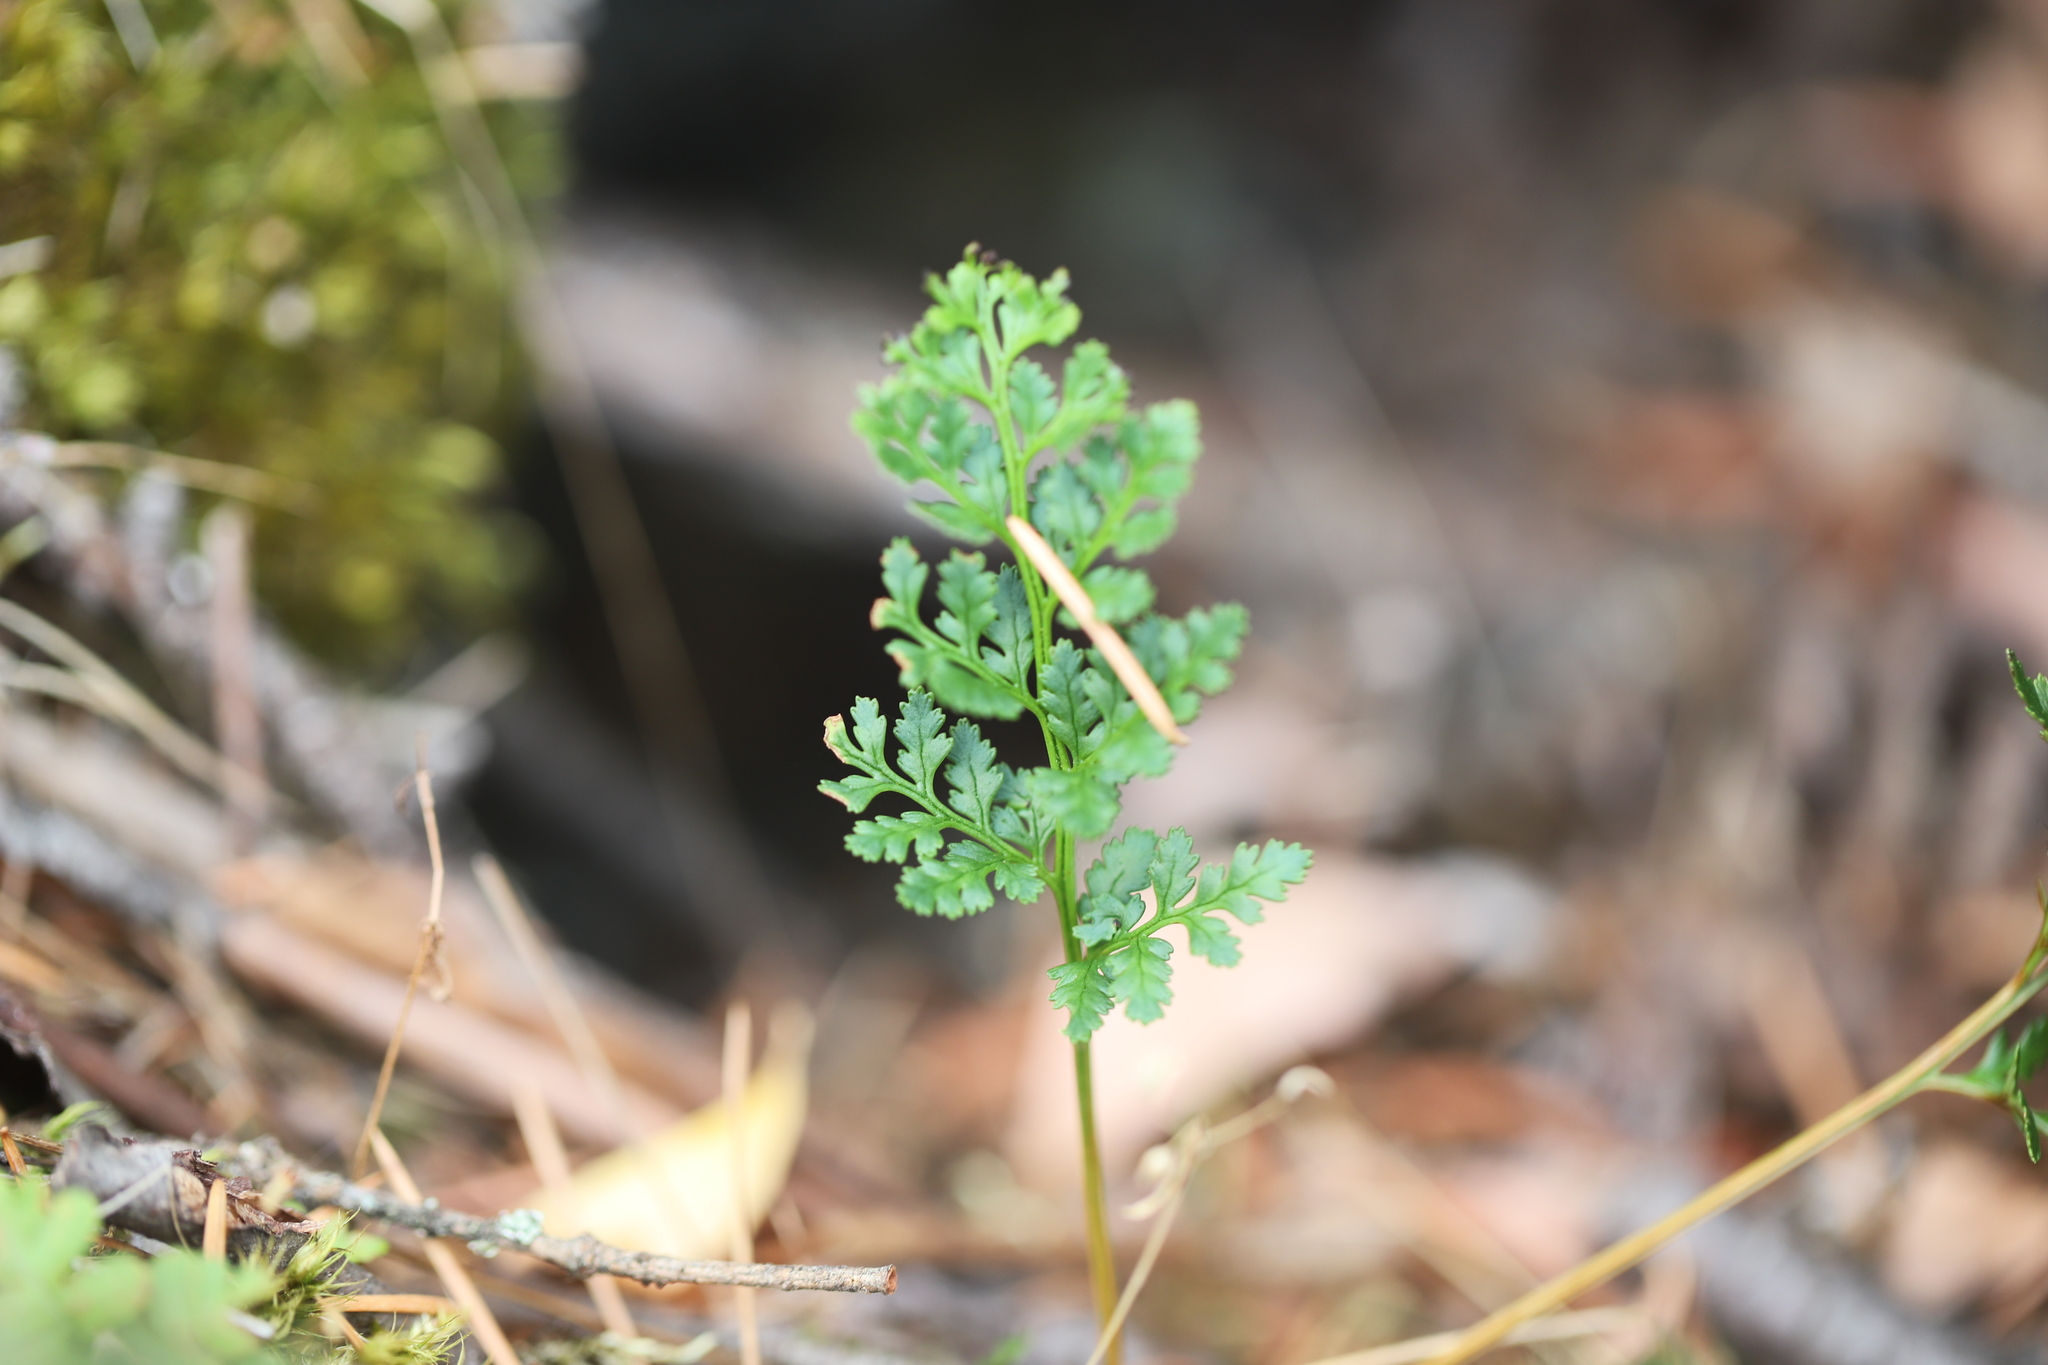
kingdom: Plantae
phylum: Tracheophyta
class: Polypodiopsida
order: Polypodiales
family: Pteridaceae
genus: Cryptogramma
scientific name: Cryptogramma acrostichoides
